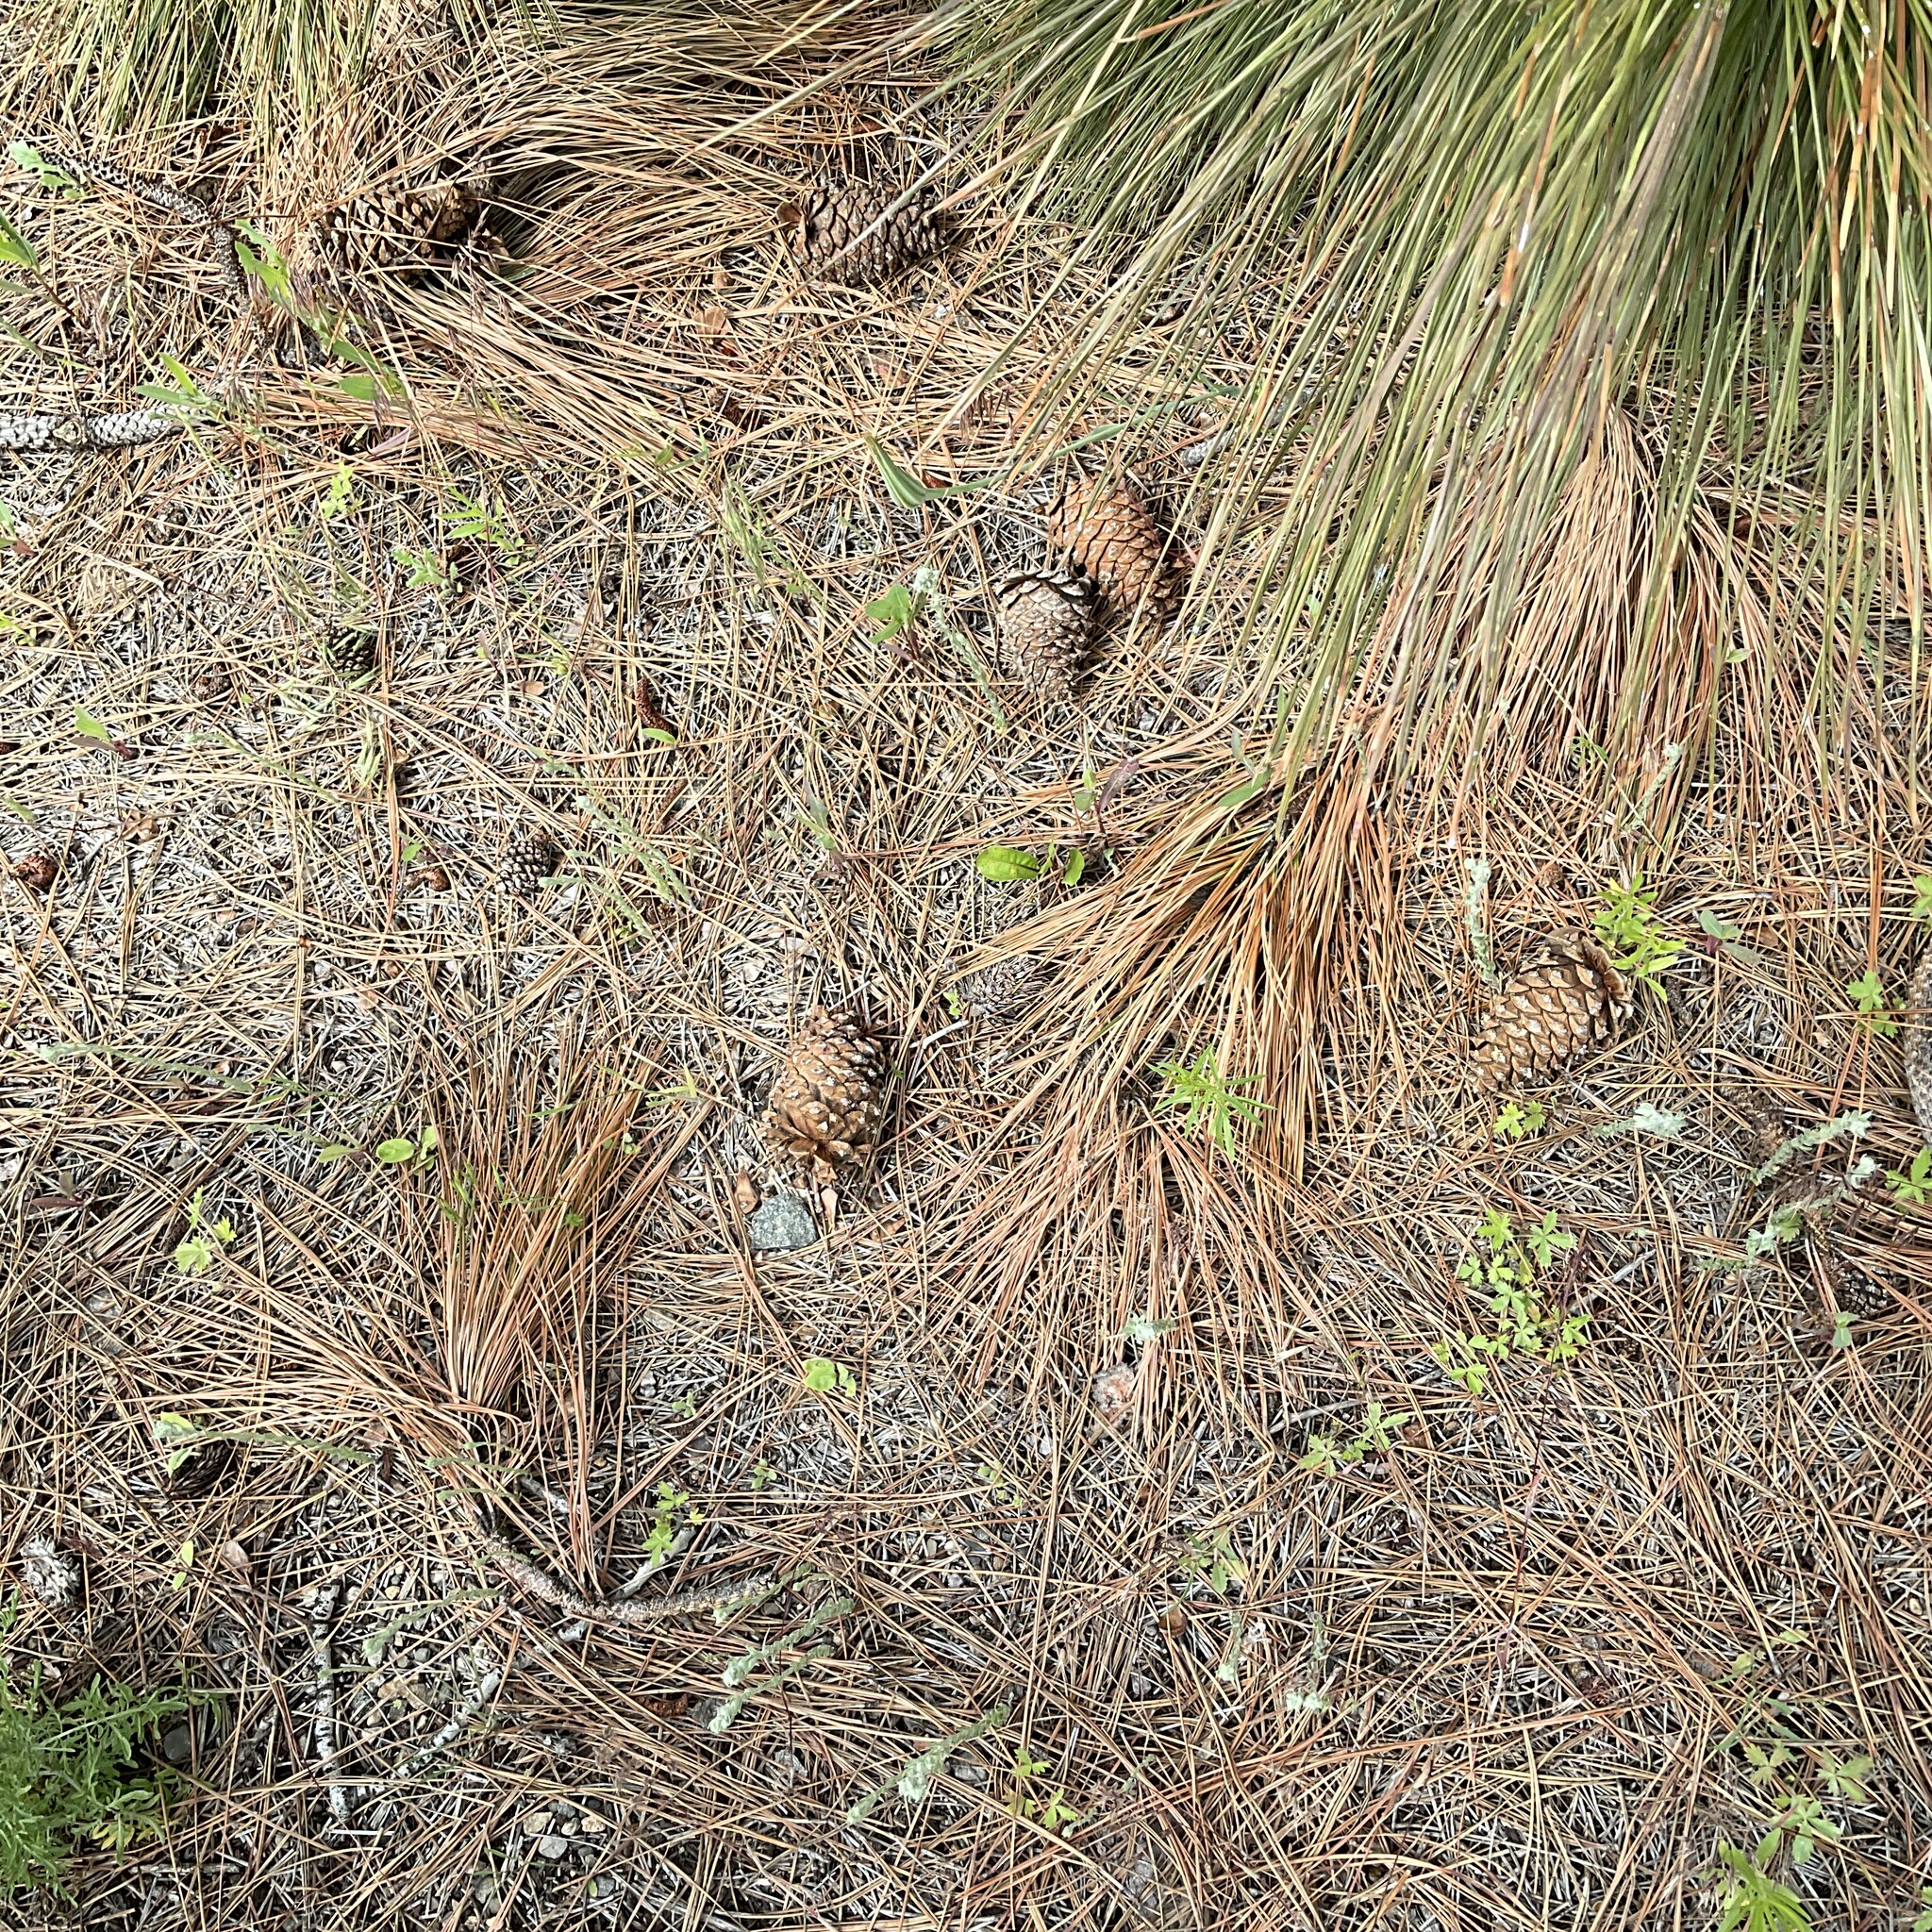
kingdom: Plantae
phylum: Tracheophyta
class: Pinopsida
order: Pinales
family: Pinaceae
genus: Pinus
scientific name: Pinus ponderosa
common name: Western yellow-pine
